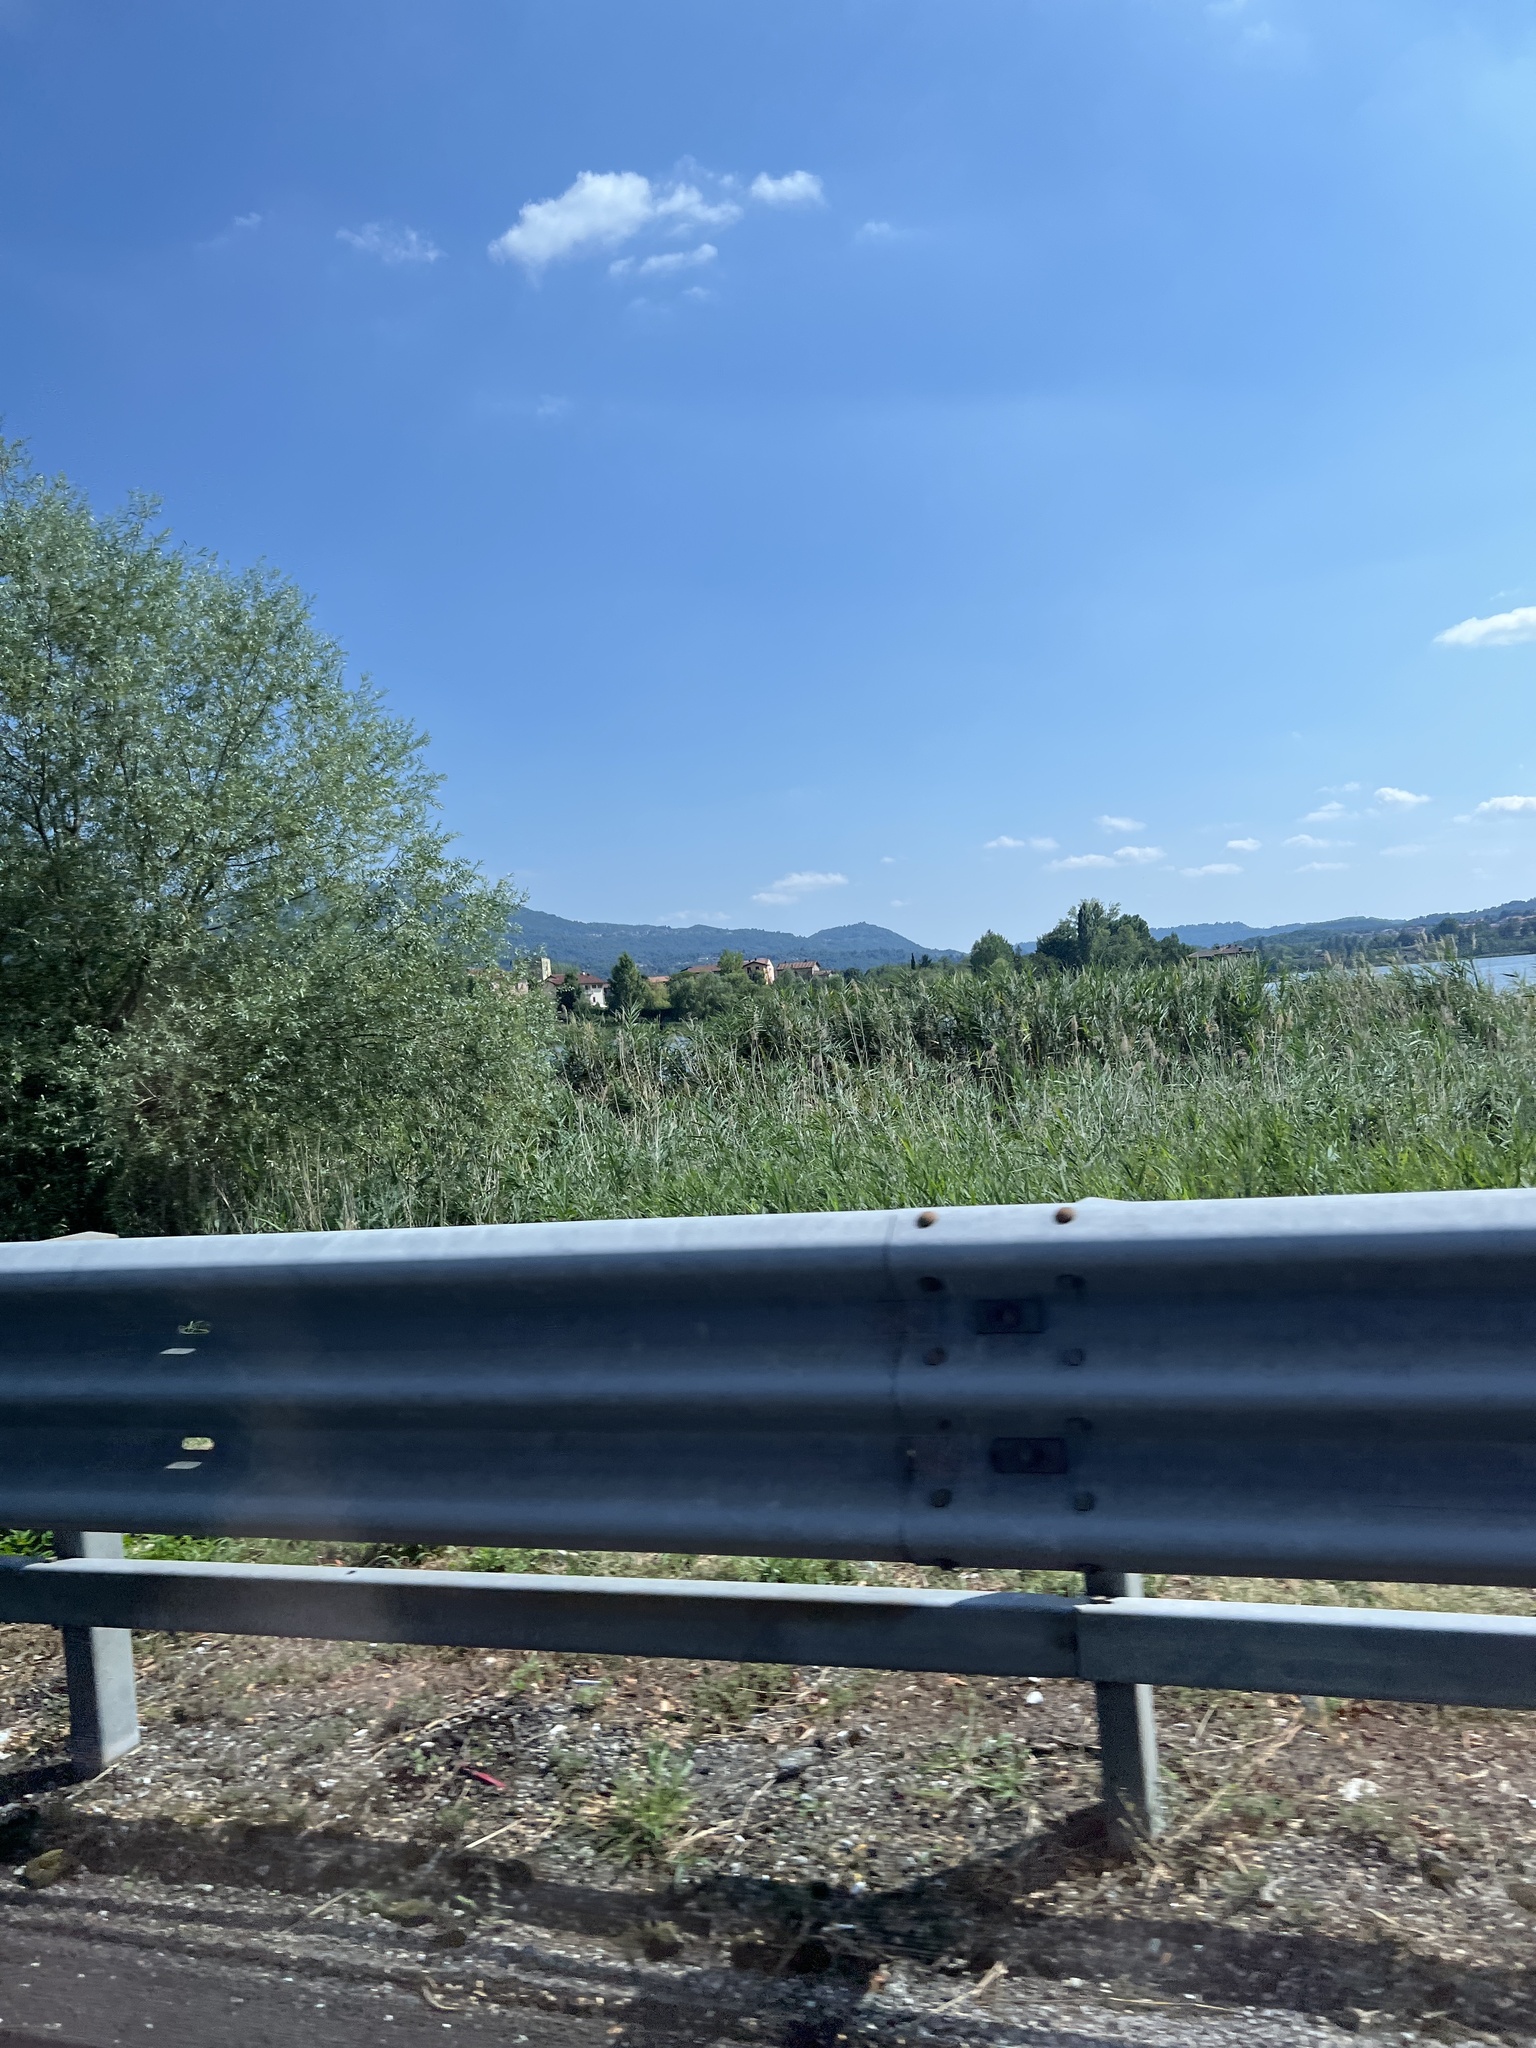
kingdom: Plantae
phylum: Tracheophyta
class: Liliopsida
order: Poales
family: Poaceae
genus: Phragmites
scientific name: Phragmites australis
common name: Common reed
